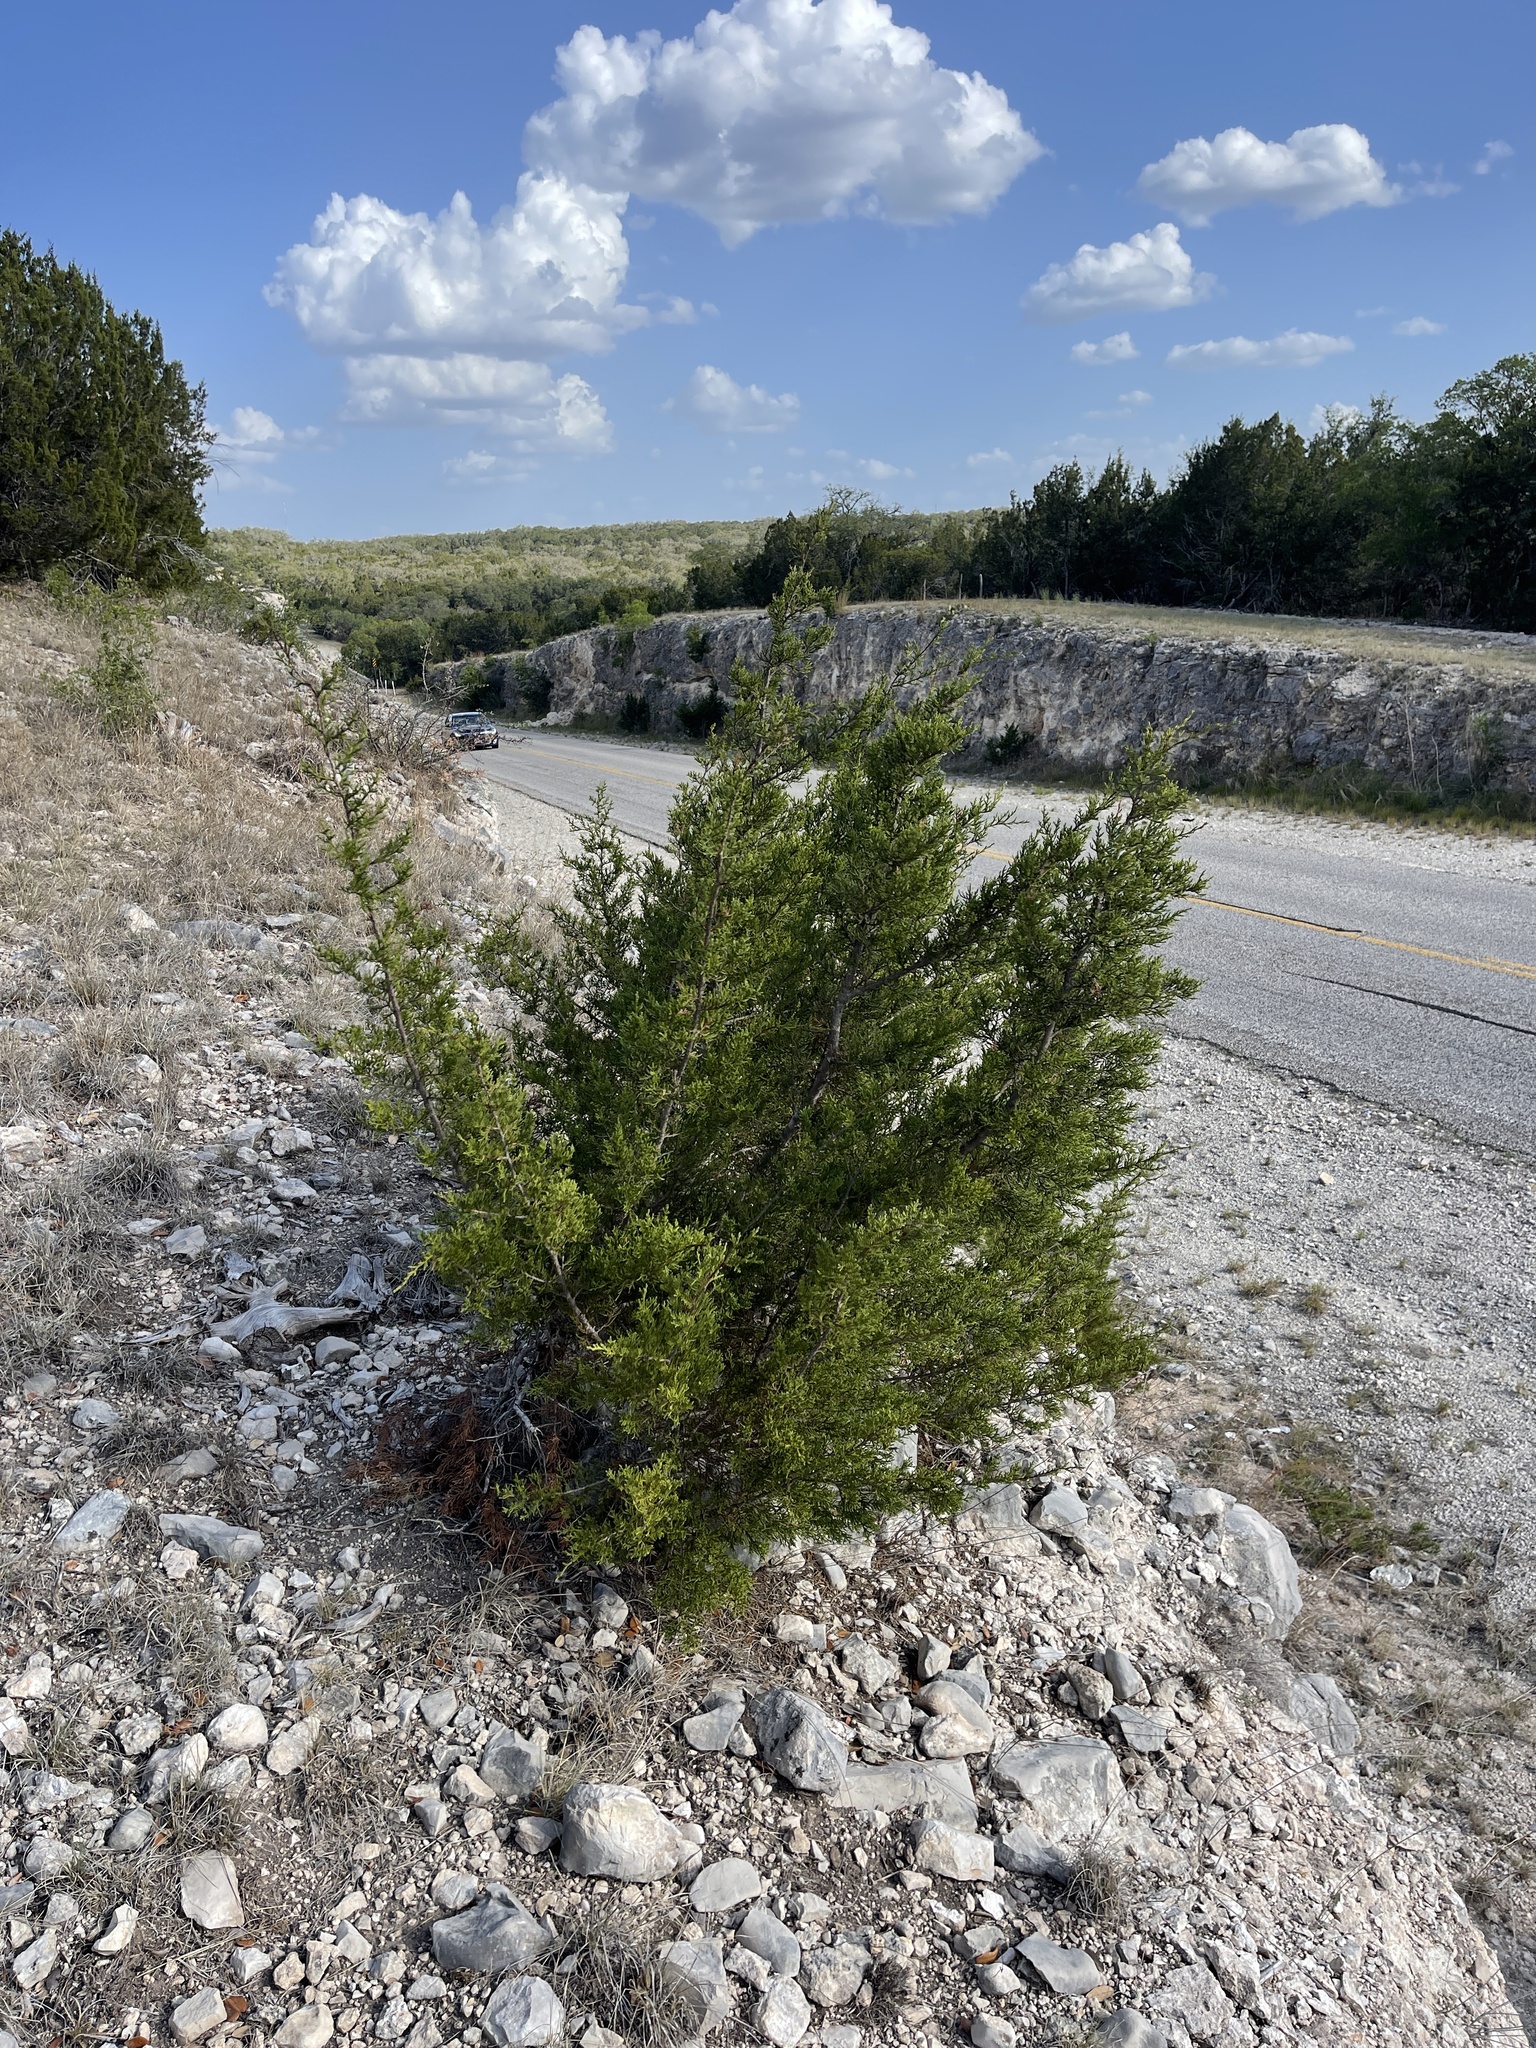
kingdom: Plantae
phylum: Tracheophyta
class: Pinopsida
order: Pinales
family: Cupressaceae
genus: Juniperus
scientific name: Juniperus ashei
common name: Mexican juniper
